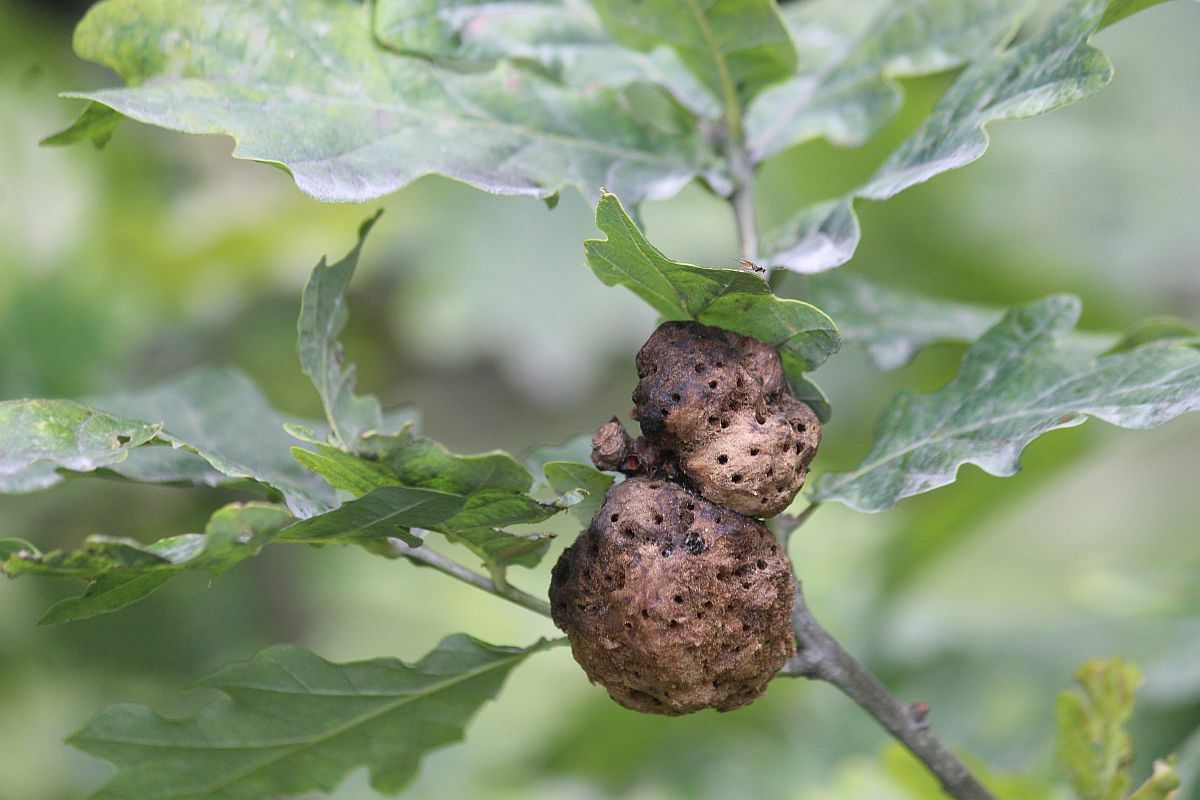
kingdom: Animalia
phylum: Arthropoda
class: Insecta
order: Hymenoptera
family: Cynipidae
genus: Biorhiza
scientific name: Biorhiza pallida
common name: Oak apple
